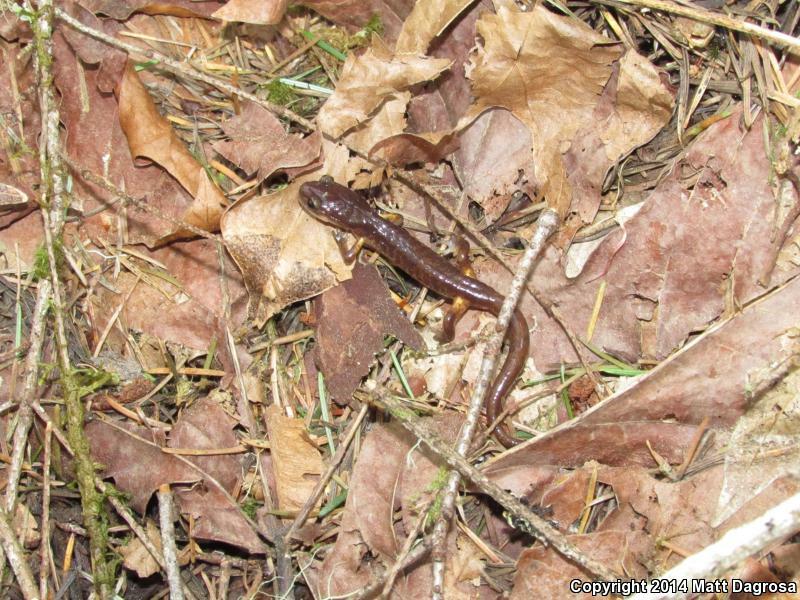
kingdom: Animalia
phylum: Chordata
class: Amphibia
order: Caudata
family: Plethodontidae
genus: Ensatina
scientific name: Ensatina eschscholtzii
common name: Ensatina
